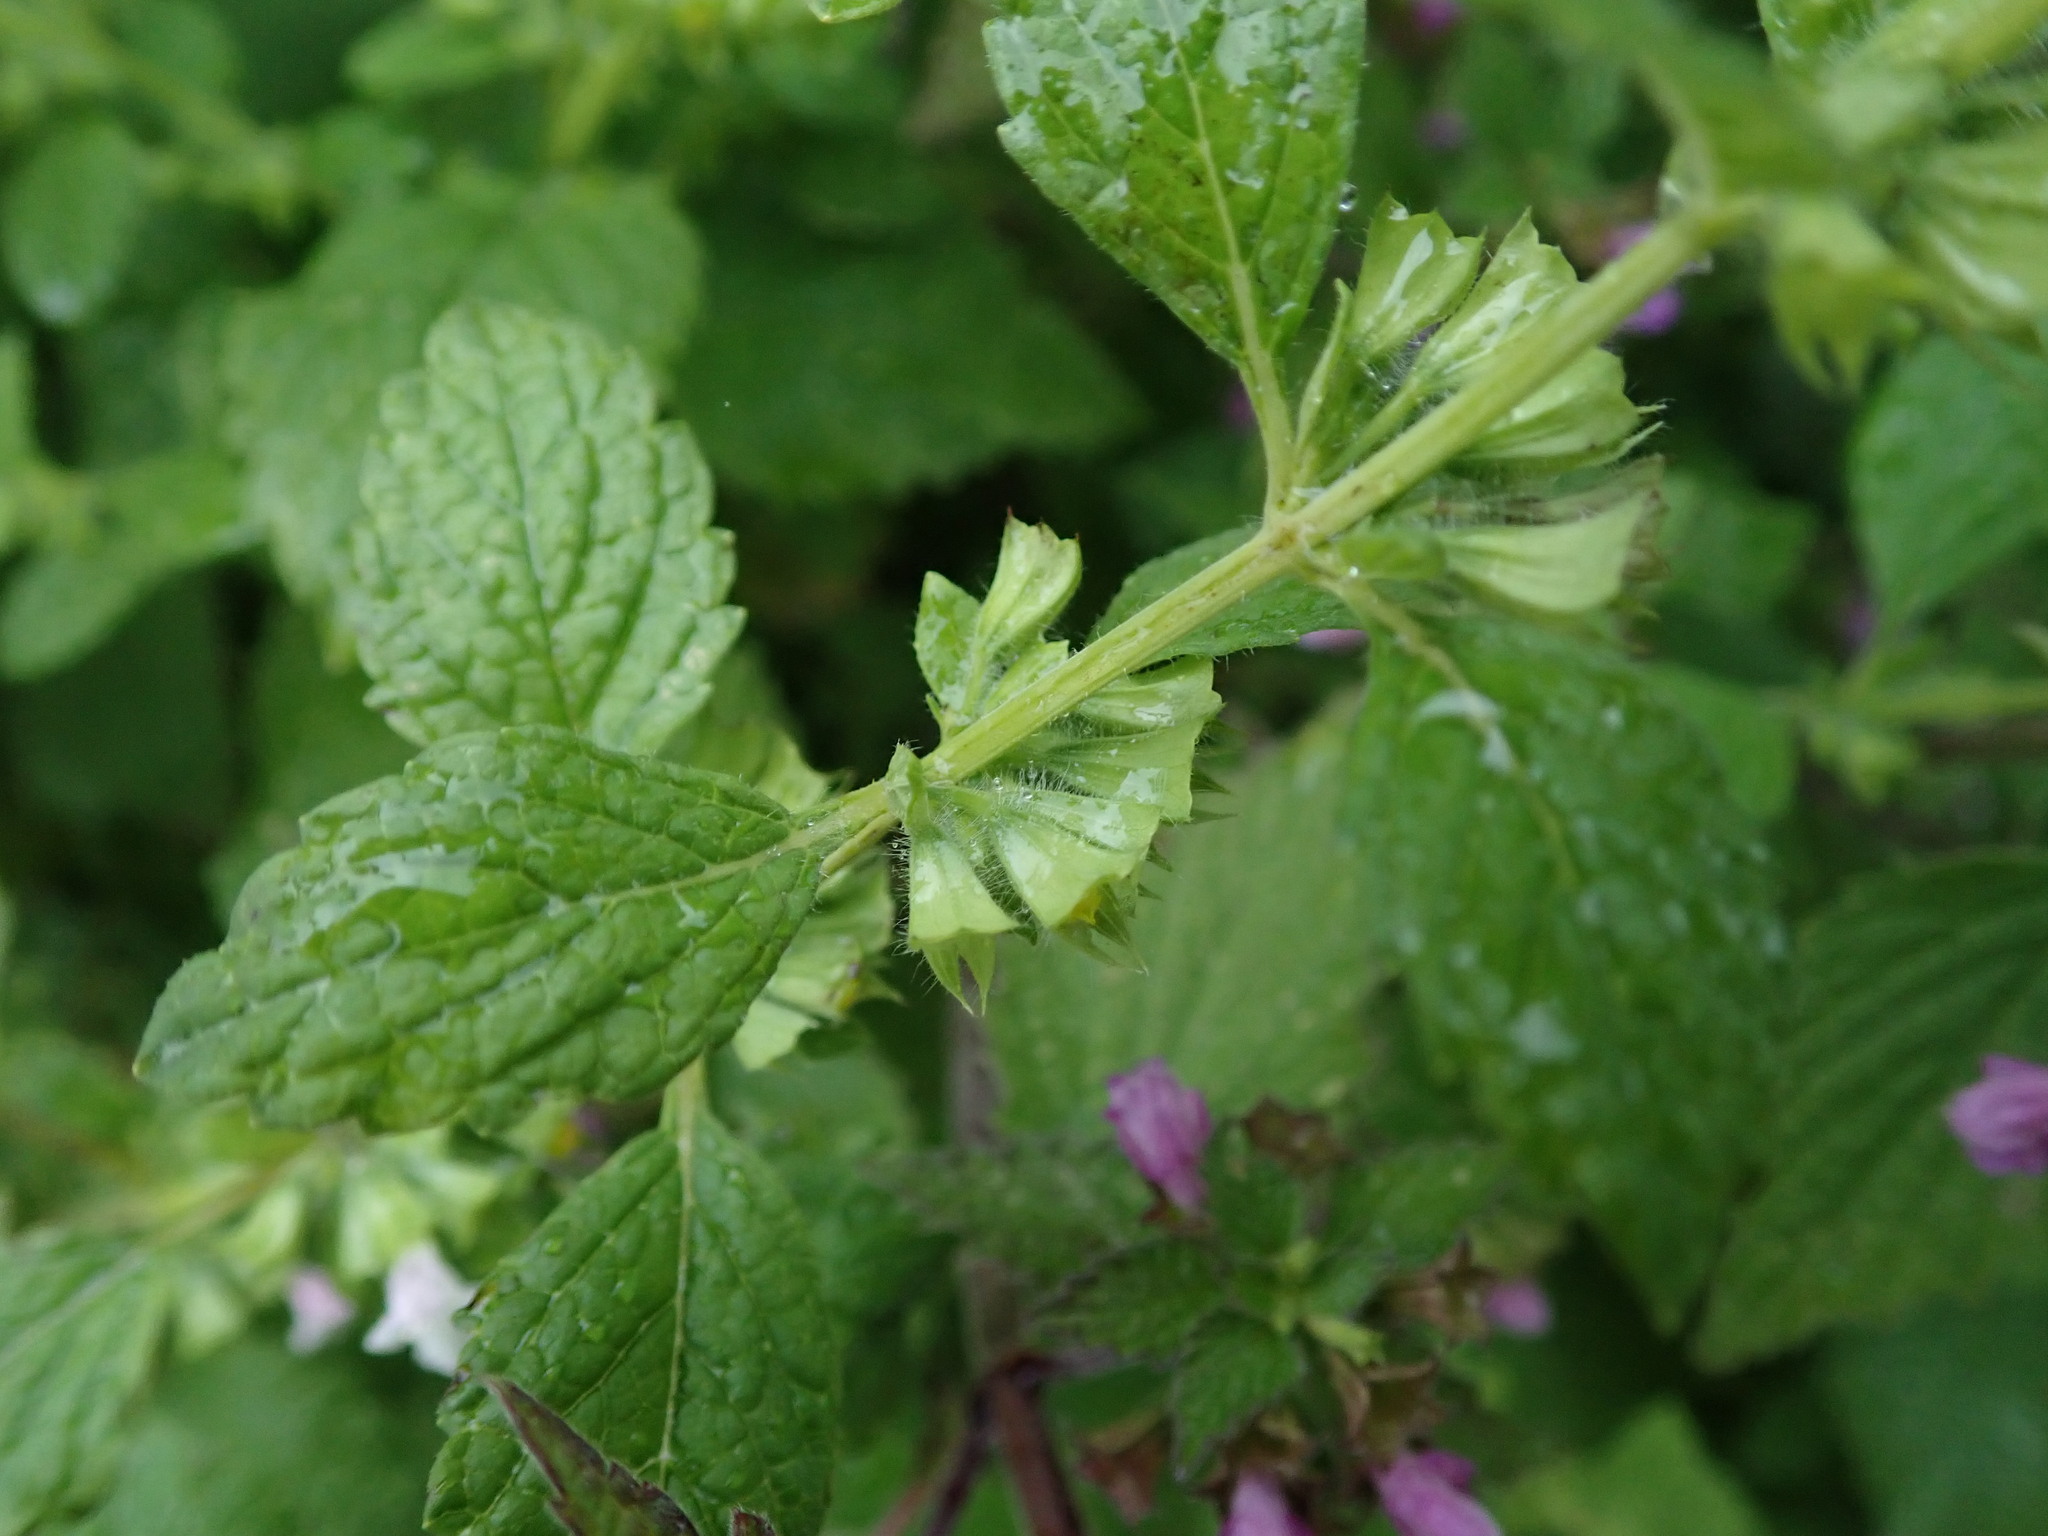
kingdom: Plantae
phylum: Tracheophyta
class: Magnoliopsida
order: Lamiales
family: Lamiaceae
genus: Melissa
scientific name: Melissa officinalis
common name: Balm
